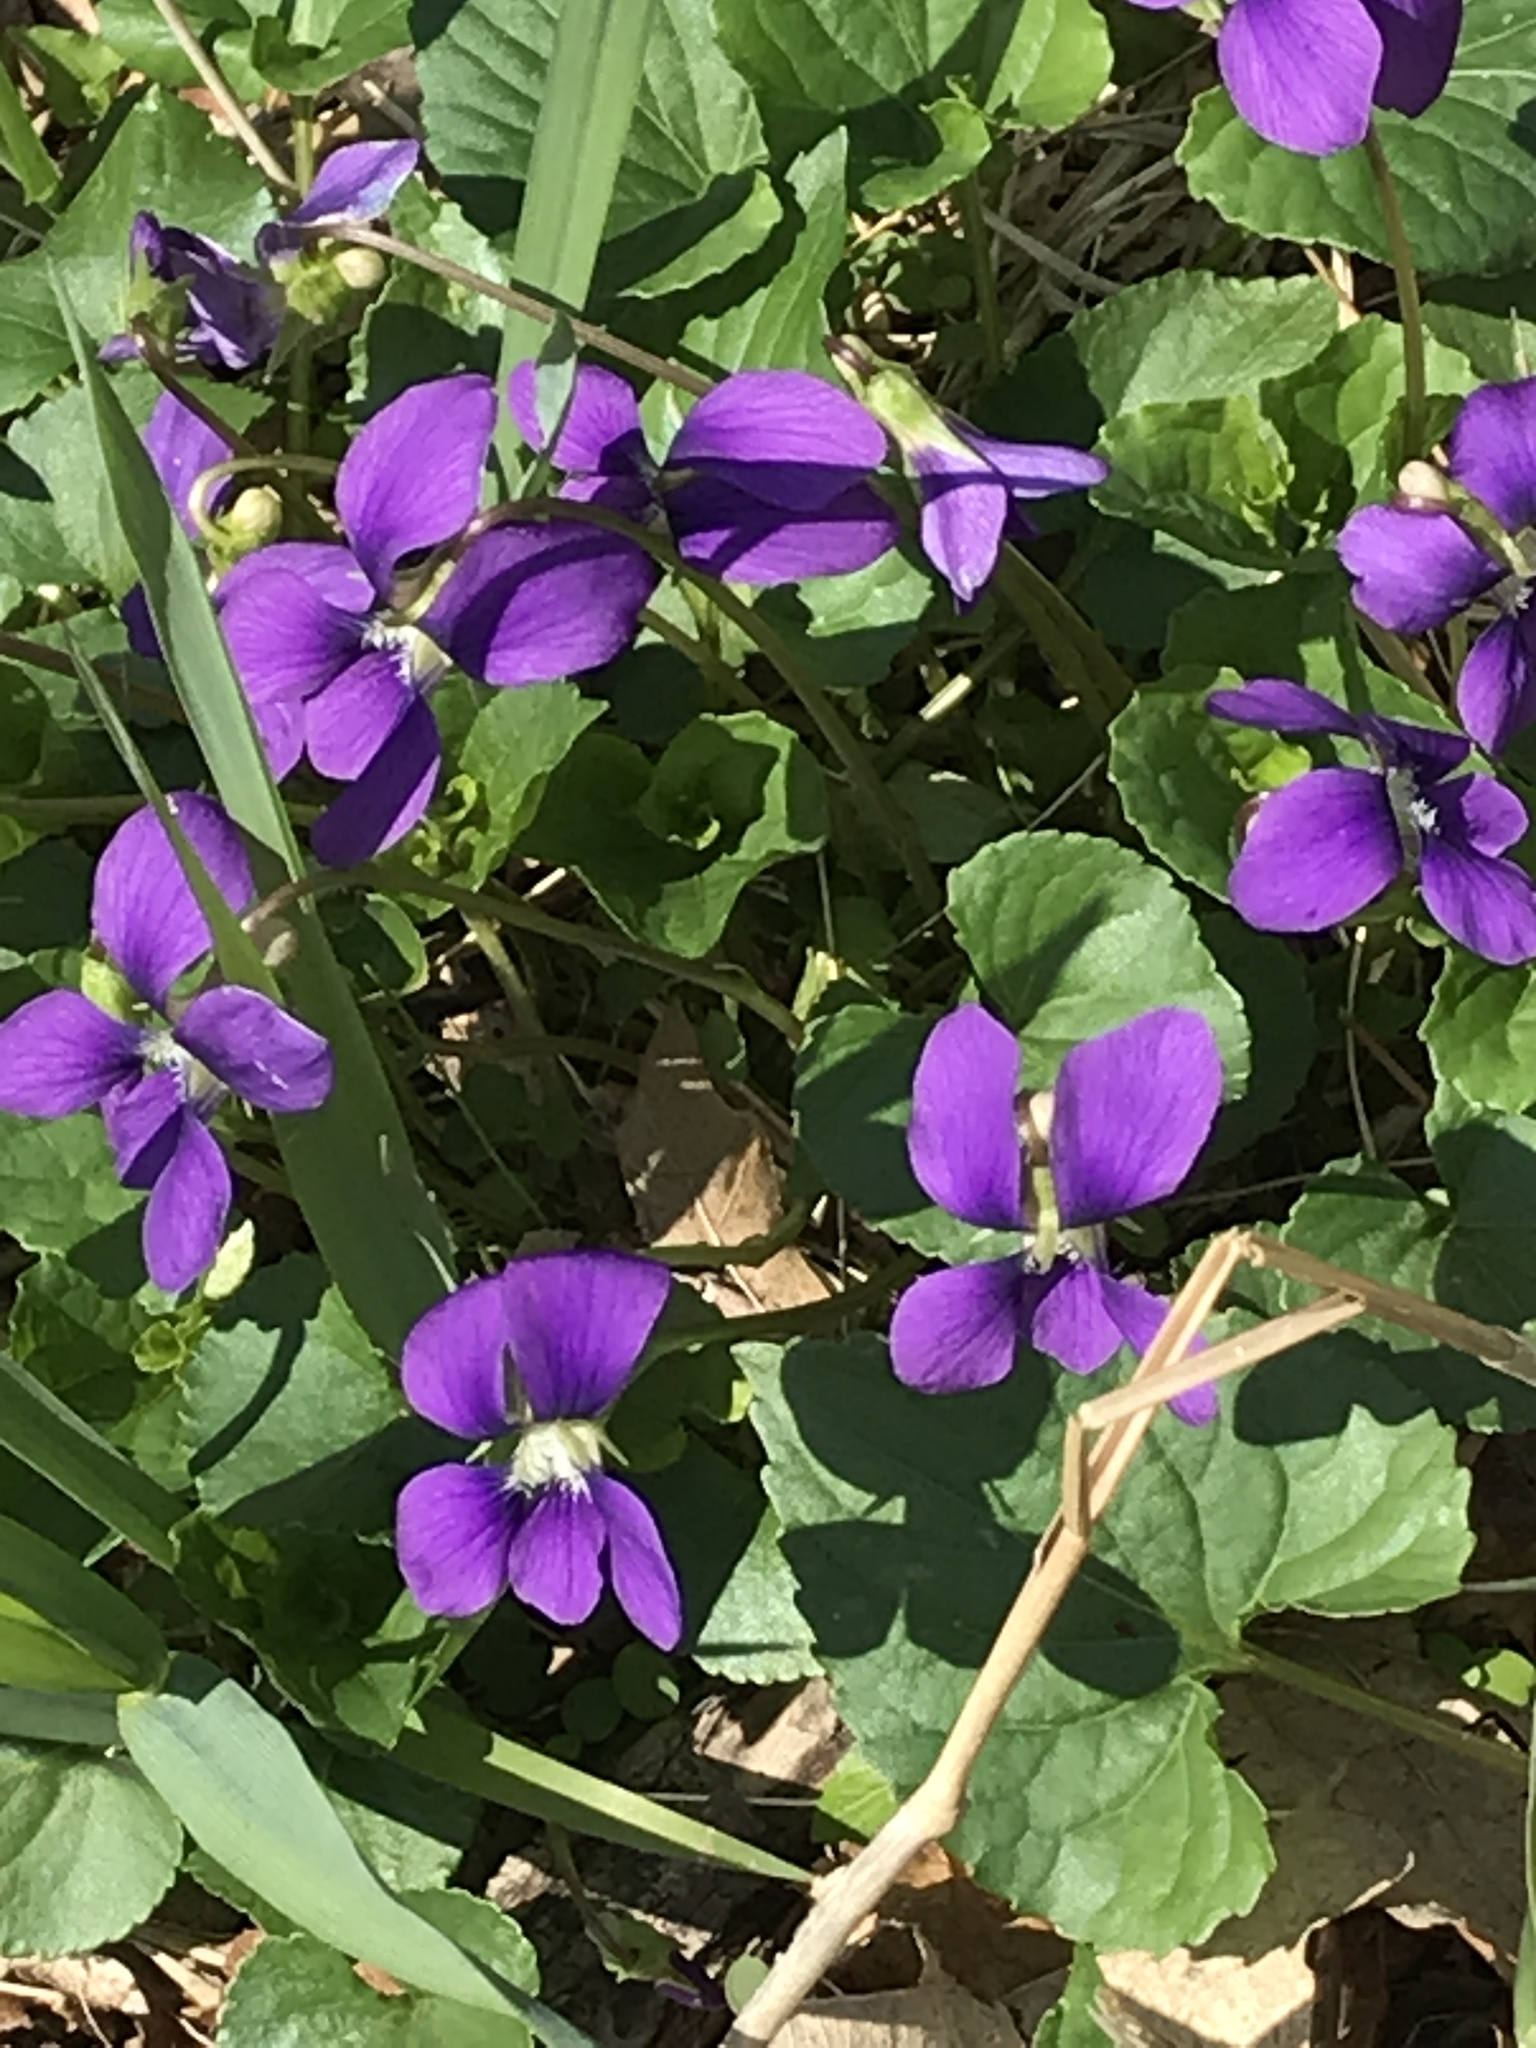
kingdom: Plantae
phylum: Tracheophyta
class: Magnoliopsida
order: Malpighiales
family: Violaceae
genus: Viola
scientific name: Viola sororia
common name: Dooryard violet
